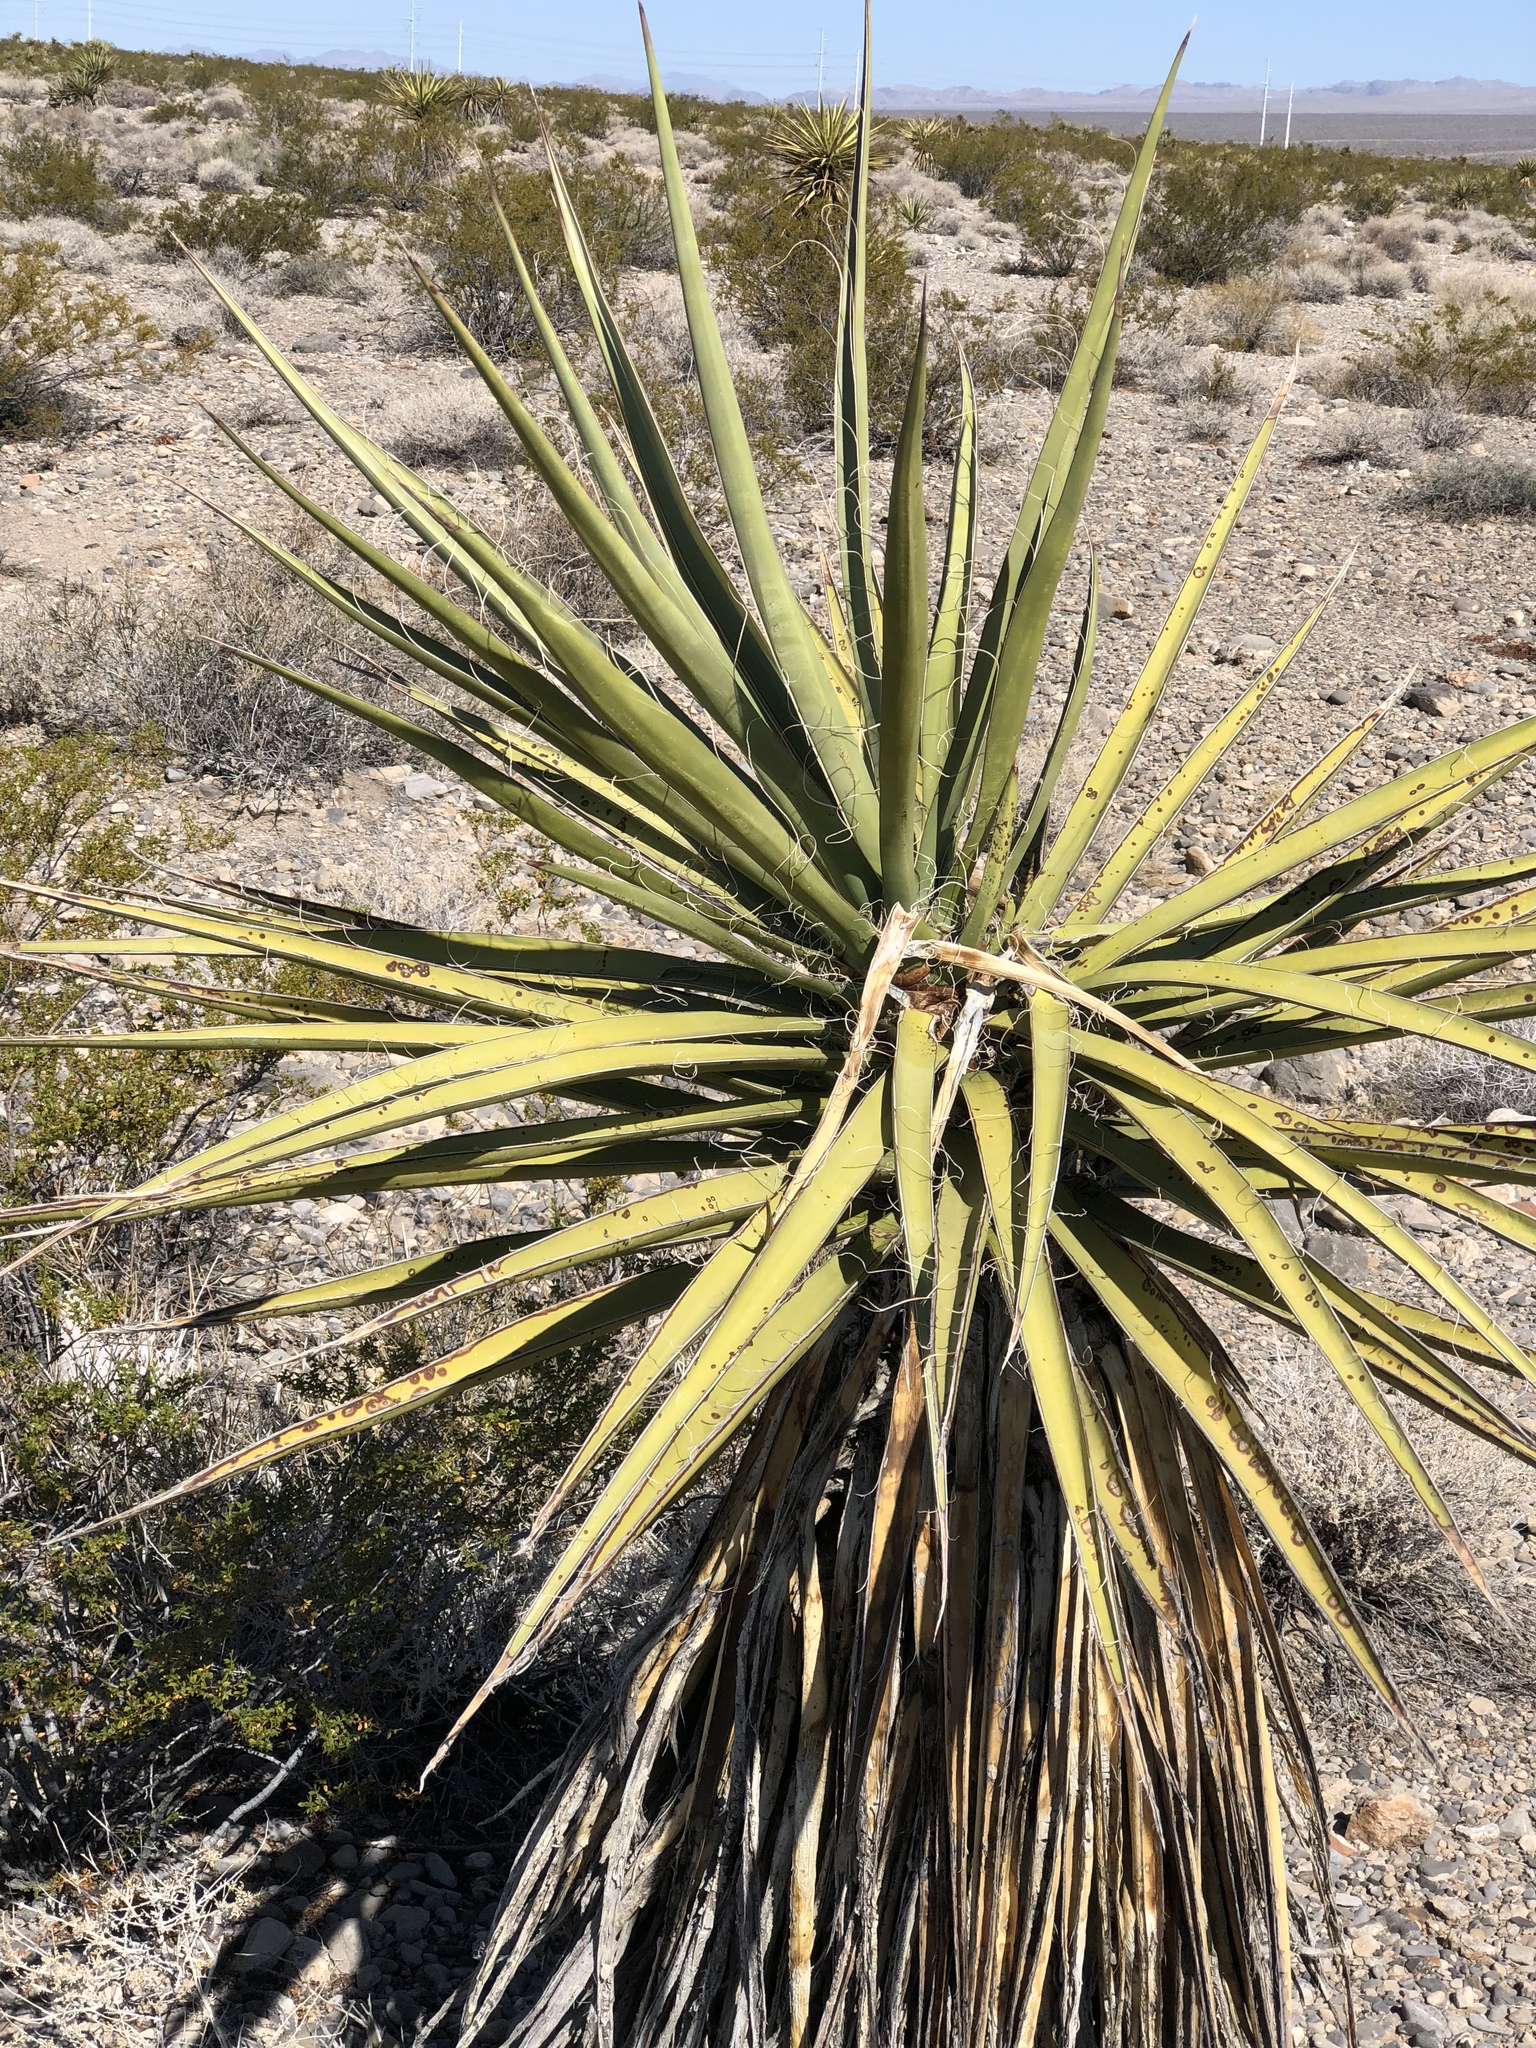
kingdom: Plantae
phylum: Tracheophyta
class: Liliopsida
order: Asparagales
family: Asparagaceae
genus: Yucca
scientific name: Yucca schidigera
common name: Mojave yucca
